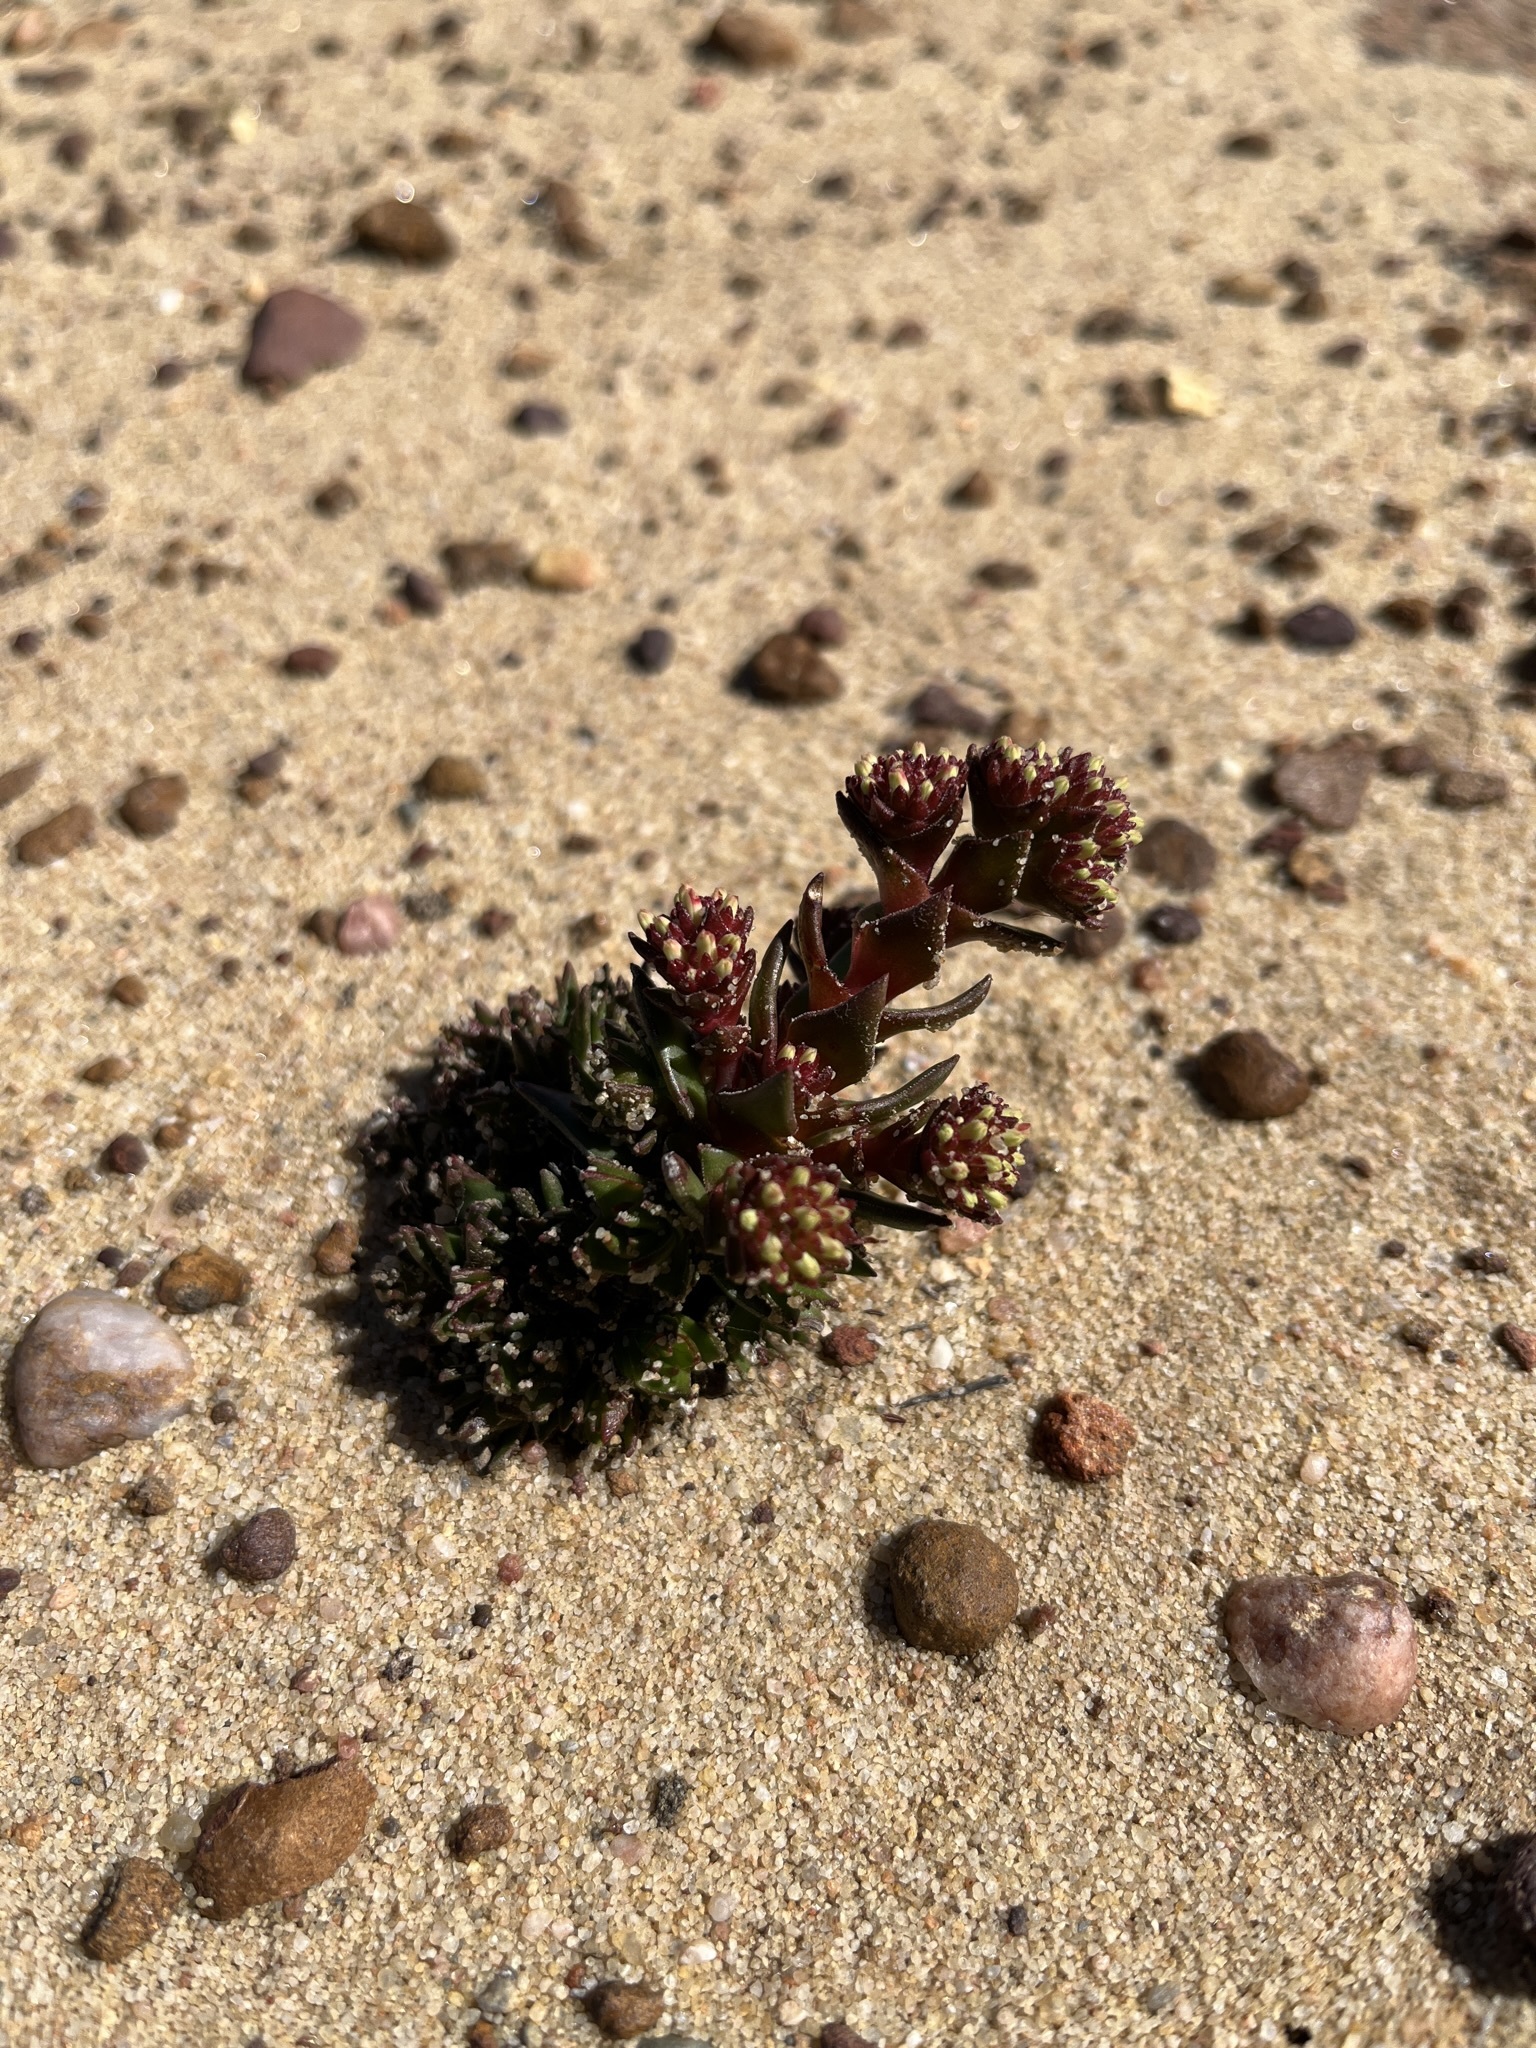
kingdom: Plantae
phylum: Tracheophyta
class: Magnoliopsida
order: Saxifragales
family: Crassulaceae
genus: Crassula
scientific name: Crassula alpestris
